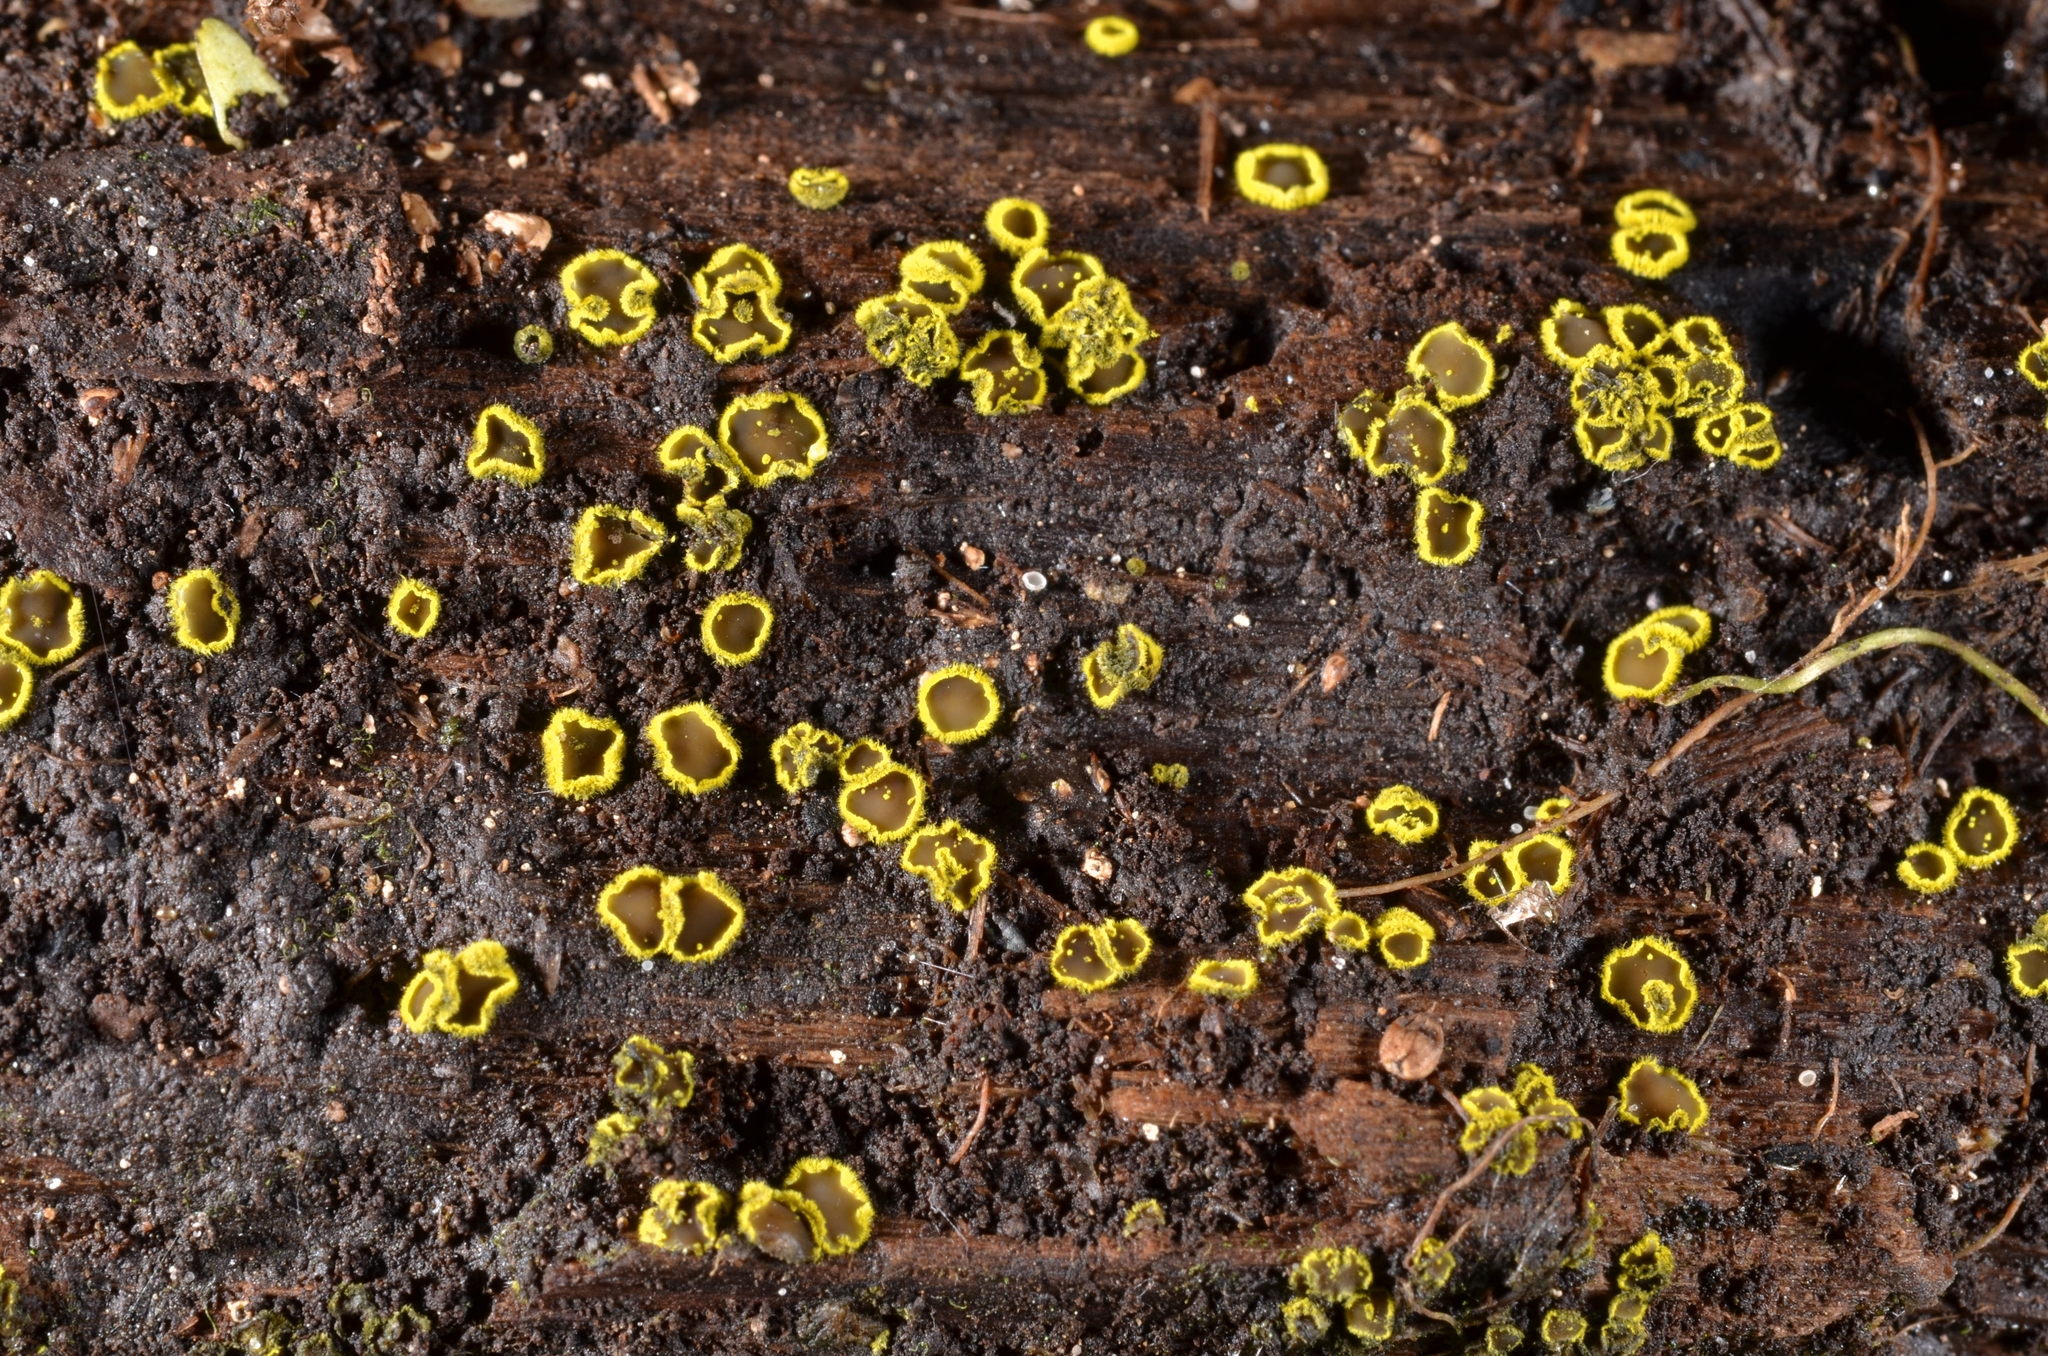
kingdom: Fungi
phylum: Ascomycota
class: Leotiomycetes
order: Helotiales
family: Amicodiscaceae
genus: Amicodisca
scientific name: Amicodisca virella
